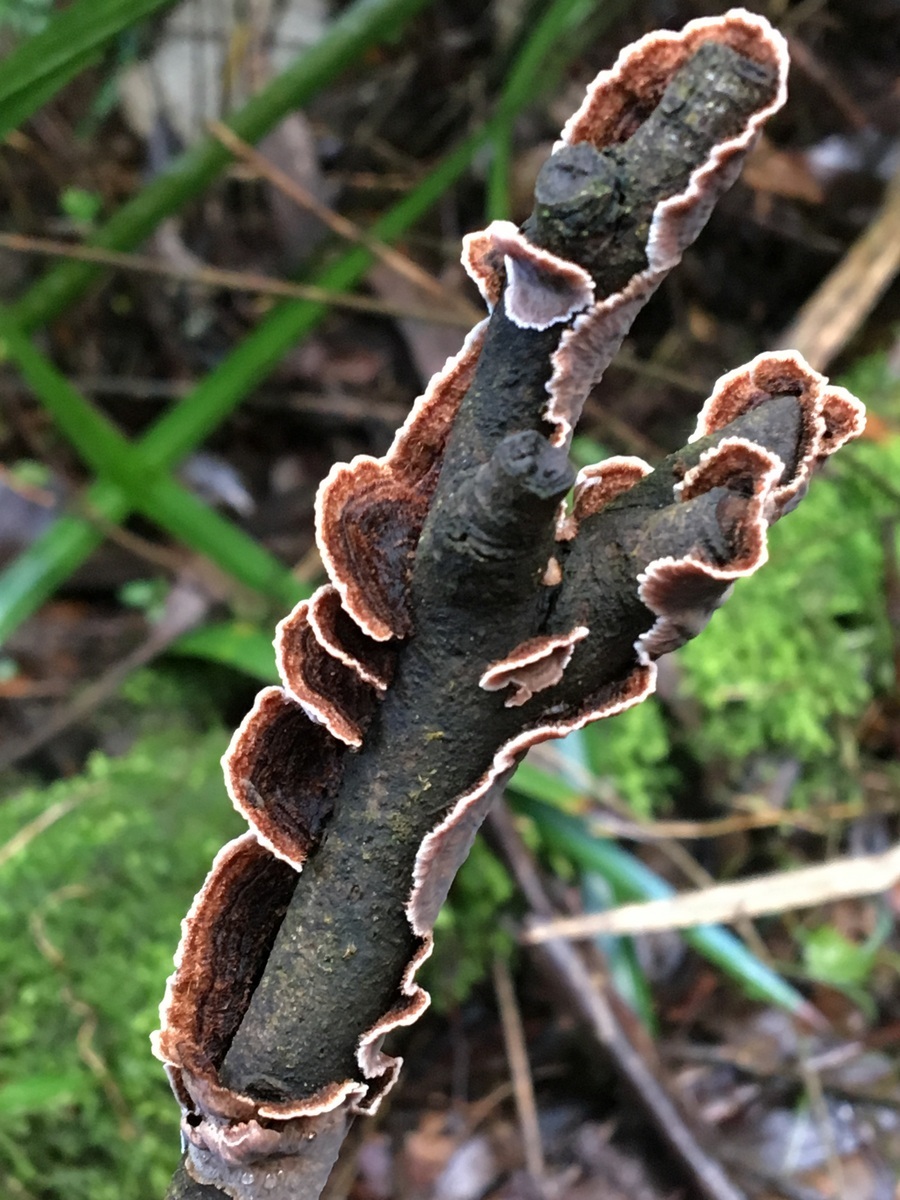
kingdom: Fungi
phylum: Basidiomycota
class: Agaricomycetes
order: Russulales
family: Stereaceae
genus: Xylobolus
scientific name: Xylobolus illudens
